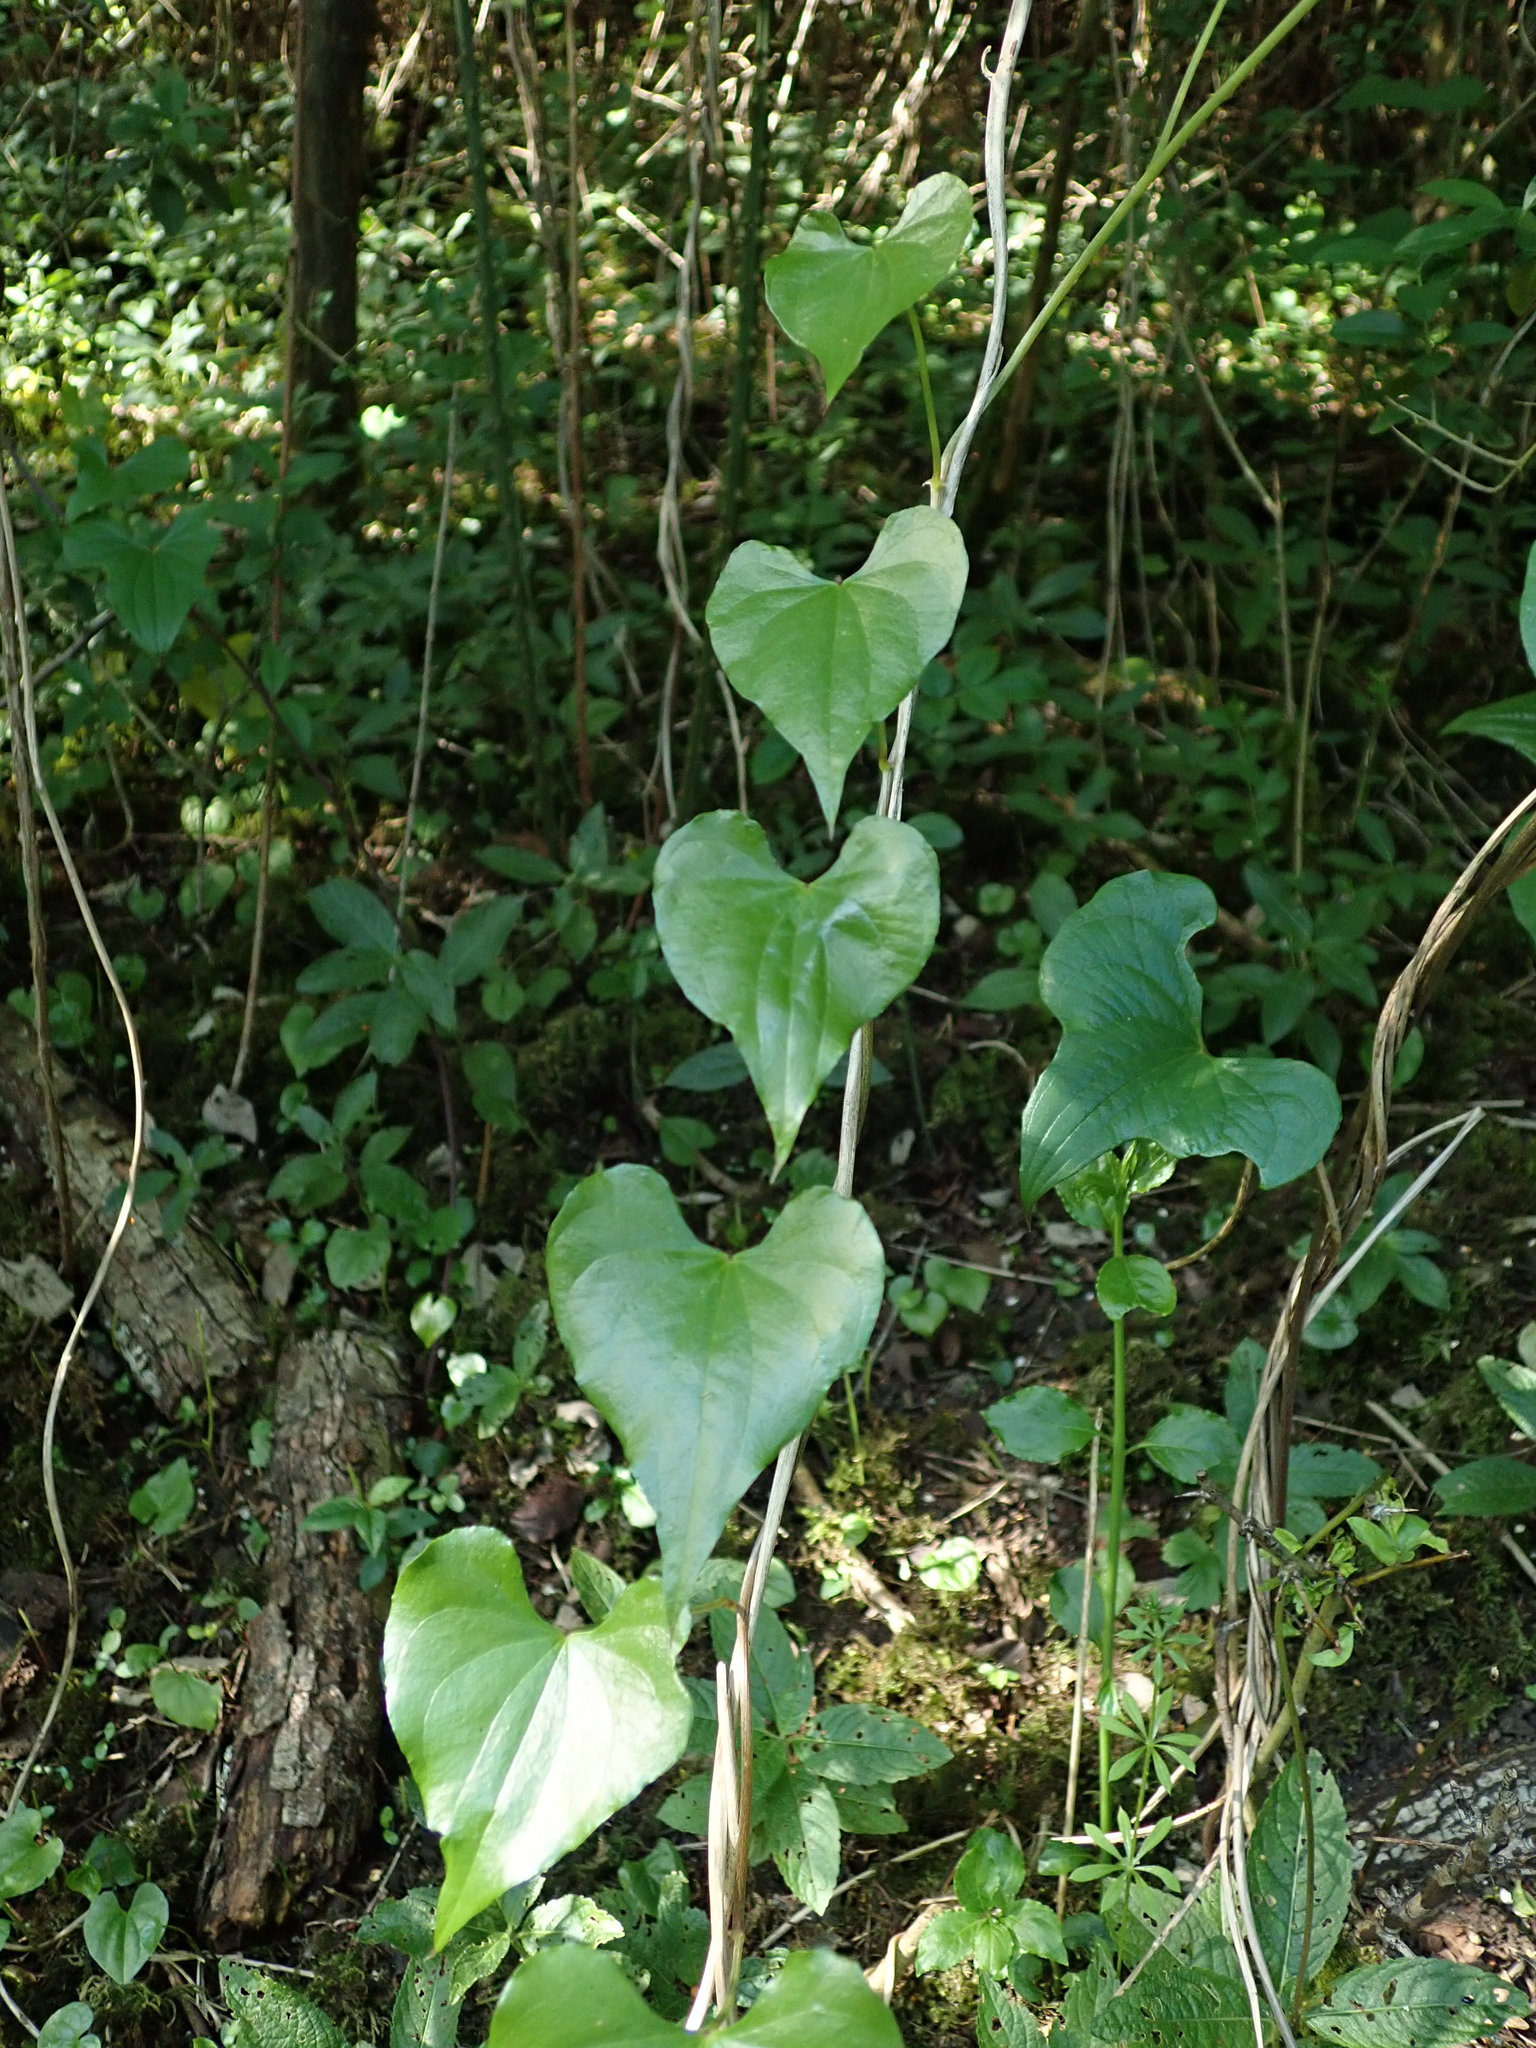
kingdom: Plantae
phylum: Tracheophyta
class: Liliopsida
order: Dioscoreales
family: Dioscoreaceae
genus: Dioscorea
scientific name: Dioscorea communis
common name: Black-bindweed
